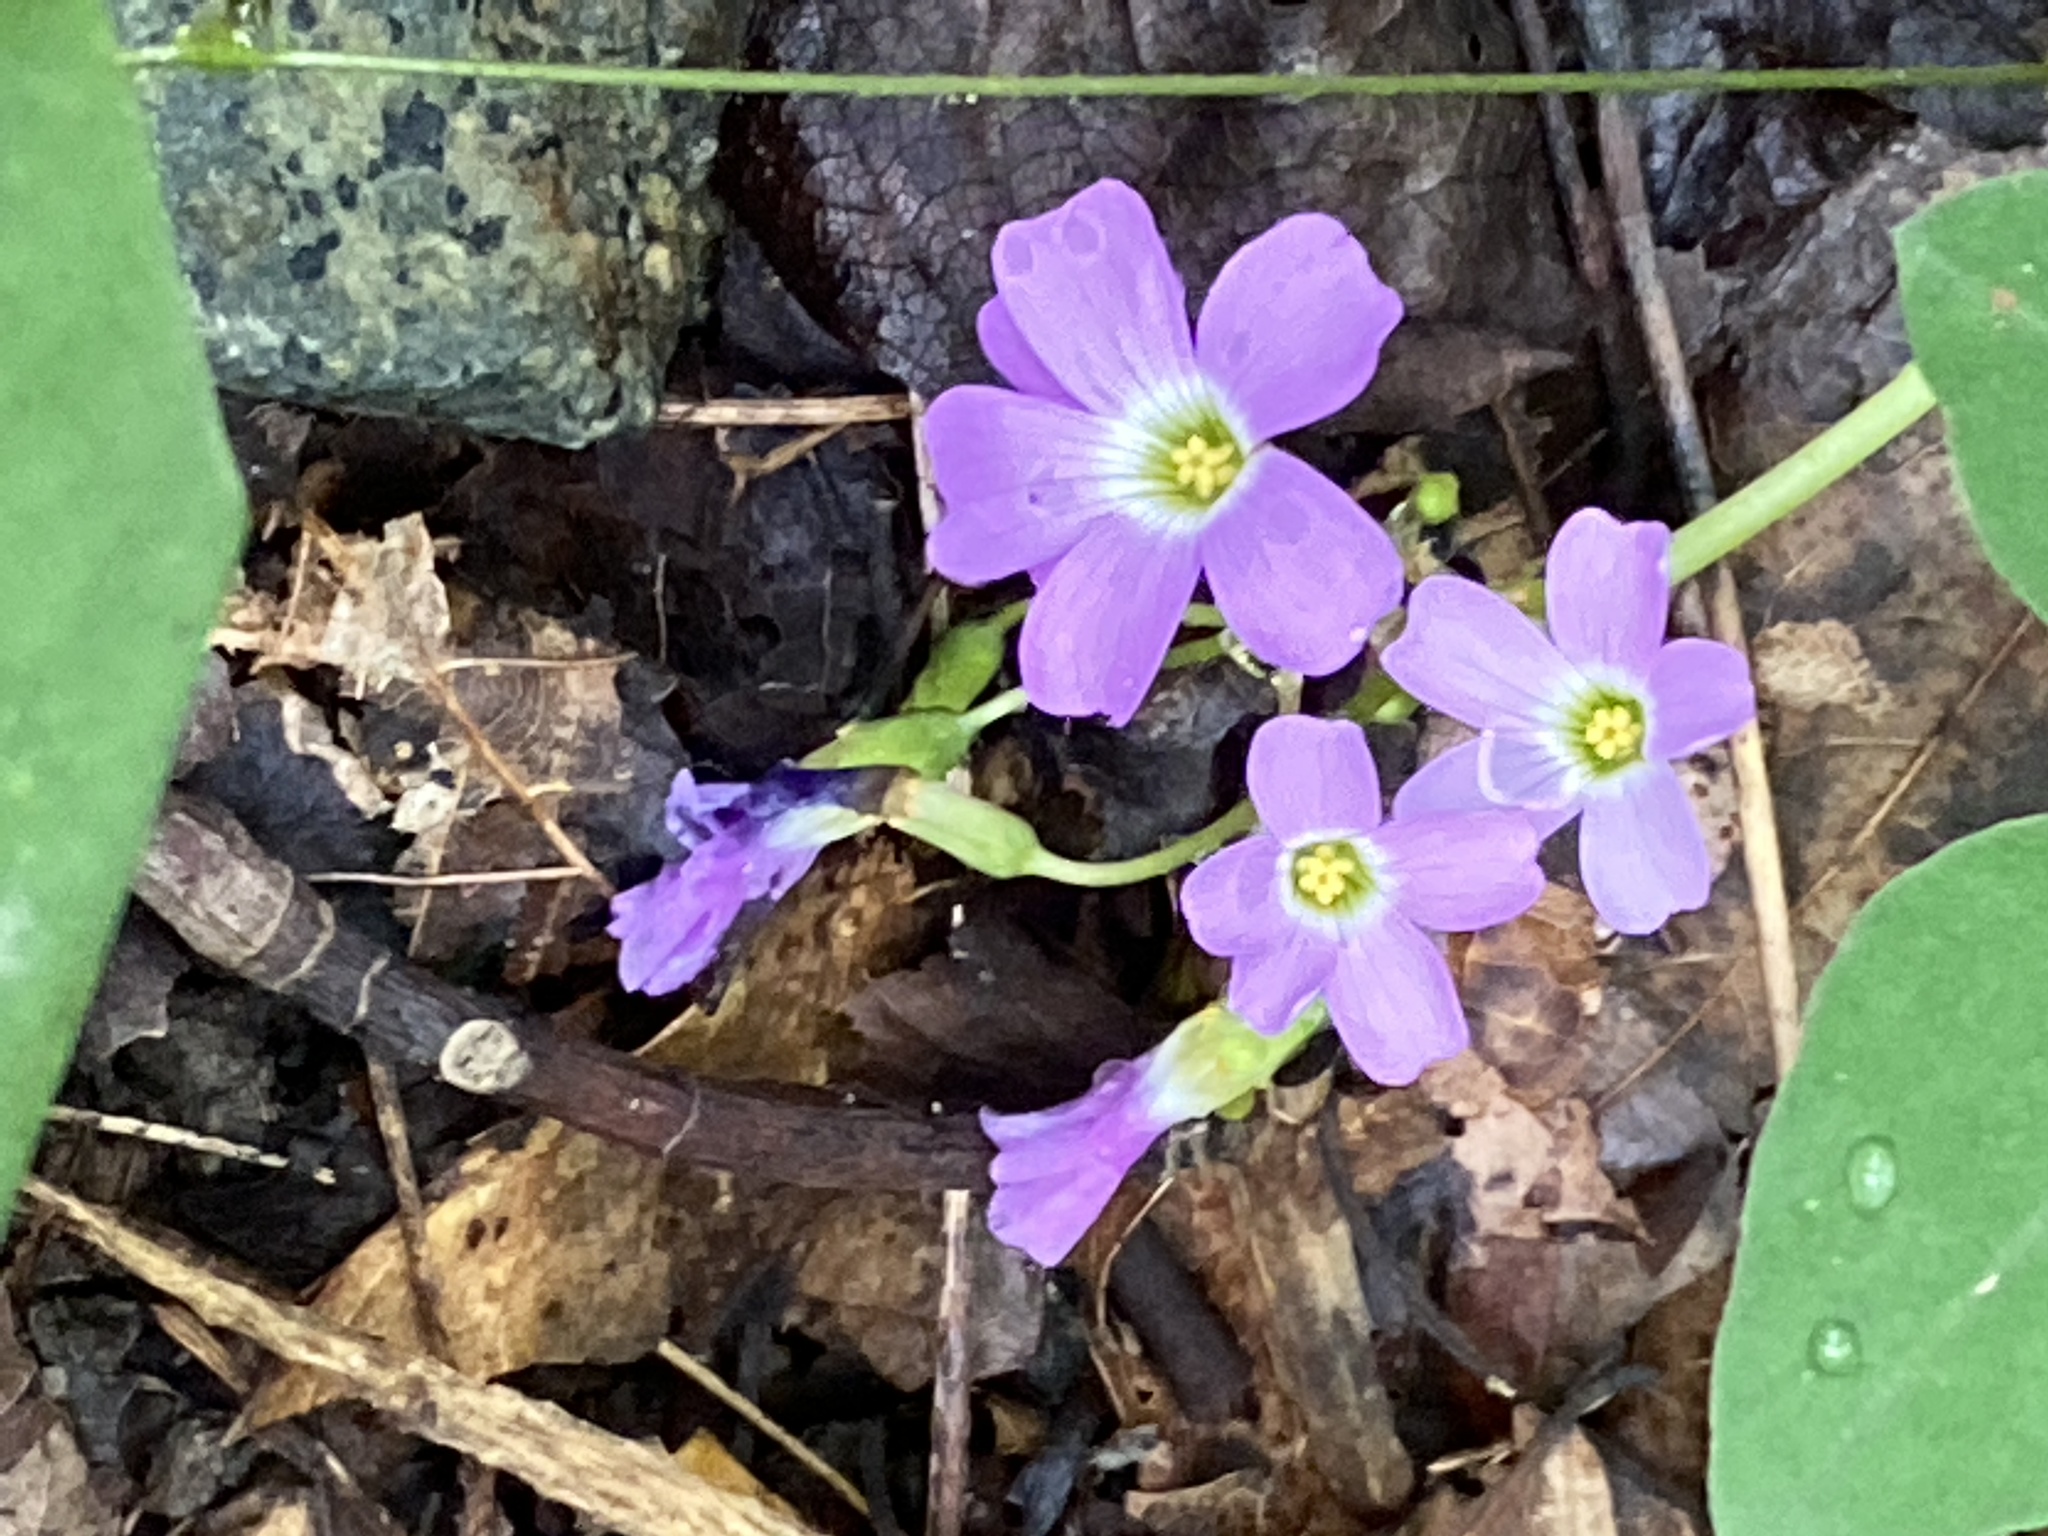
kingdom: Plantae
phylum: Tracheophyta
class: Magnoliopsida
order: Oxalidales
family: Oxalidaceae
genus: Oxalis
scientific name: Oxalis violacea
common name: Violet wood-sorrel
